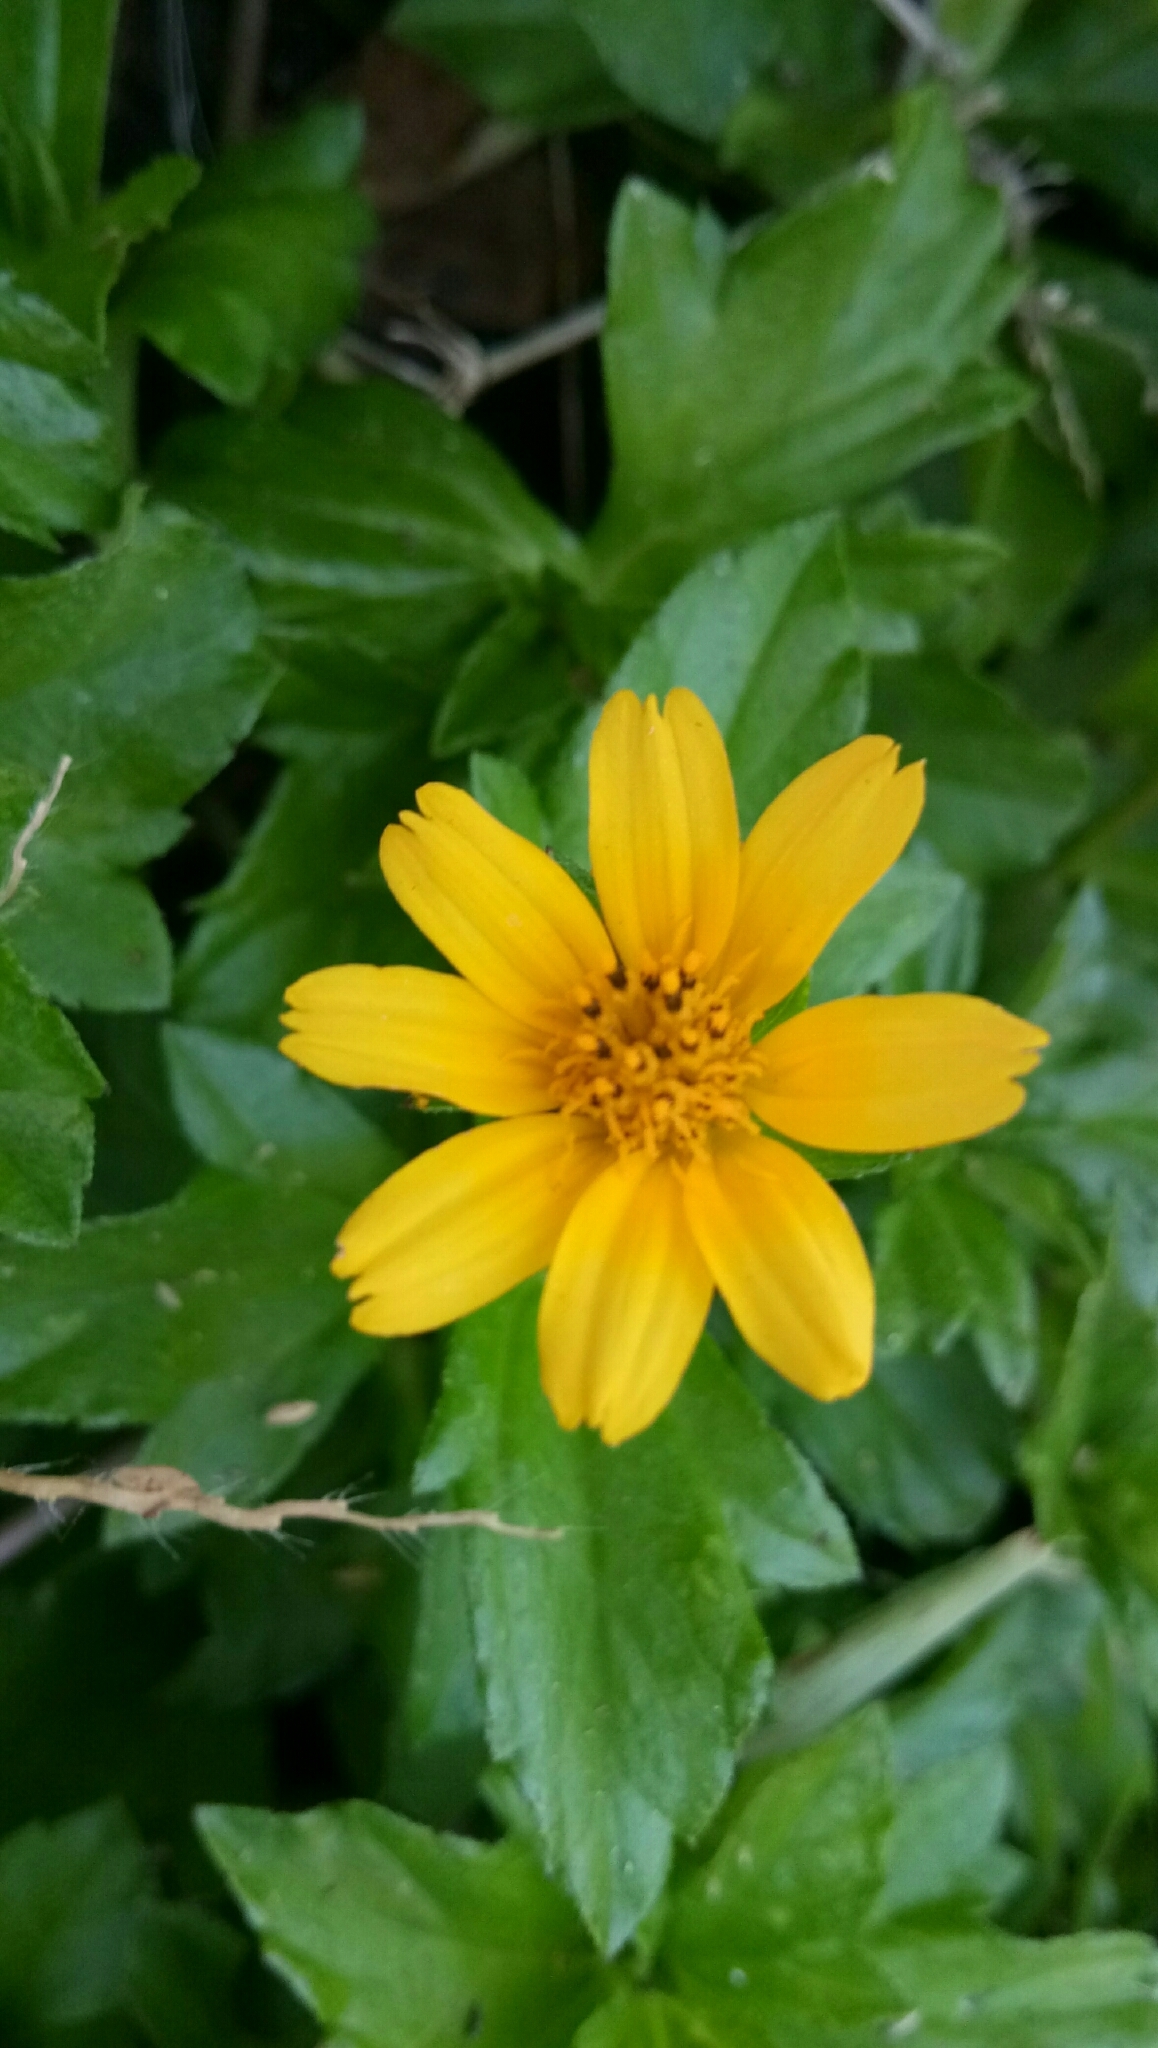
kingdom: Plantae
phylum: Tracheophyta
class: Magnoliopsida
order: Asterales
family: Asteraceae
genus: Sphagneticola
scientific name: Sphagneticola trilobata
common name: Bay biscayne creeping-oxeye
